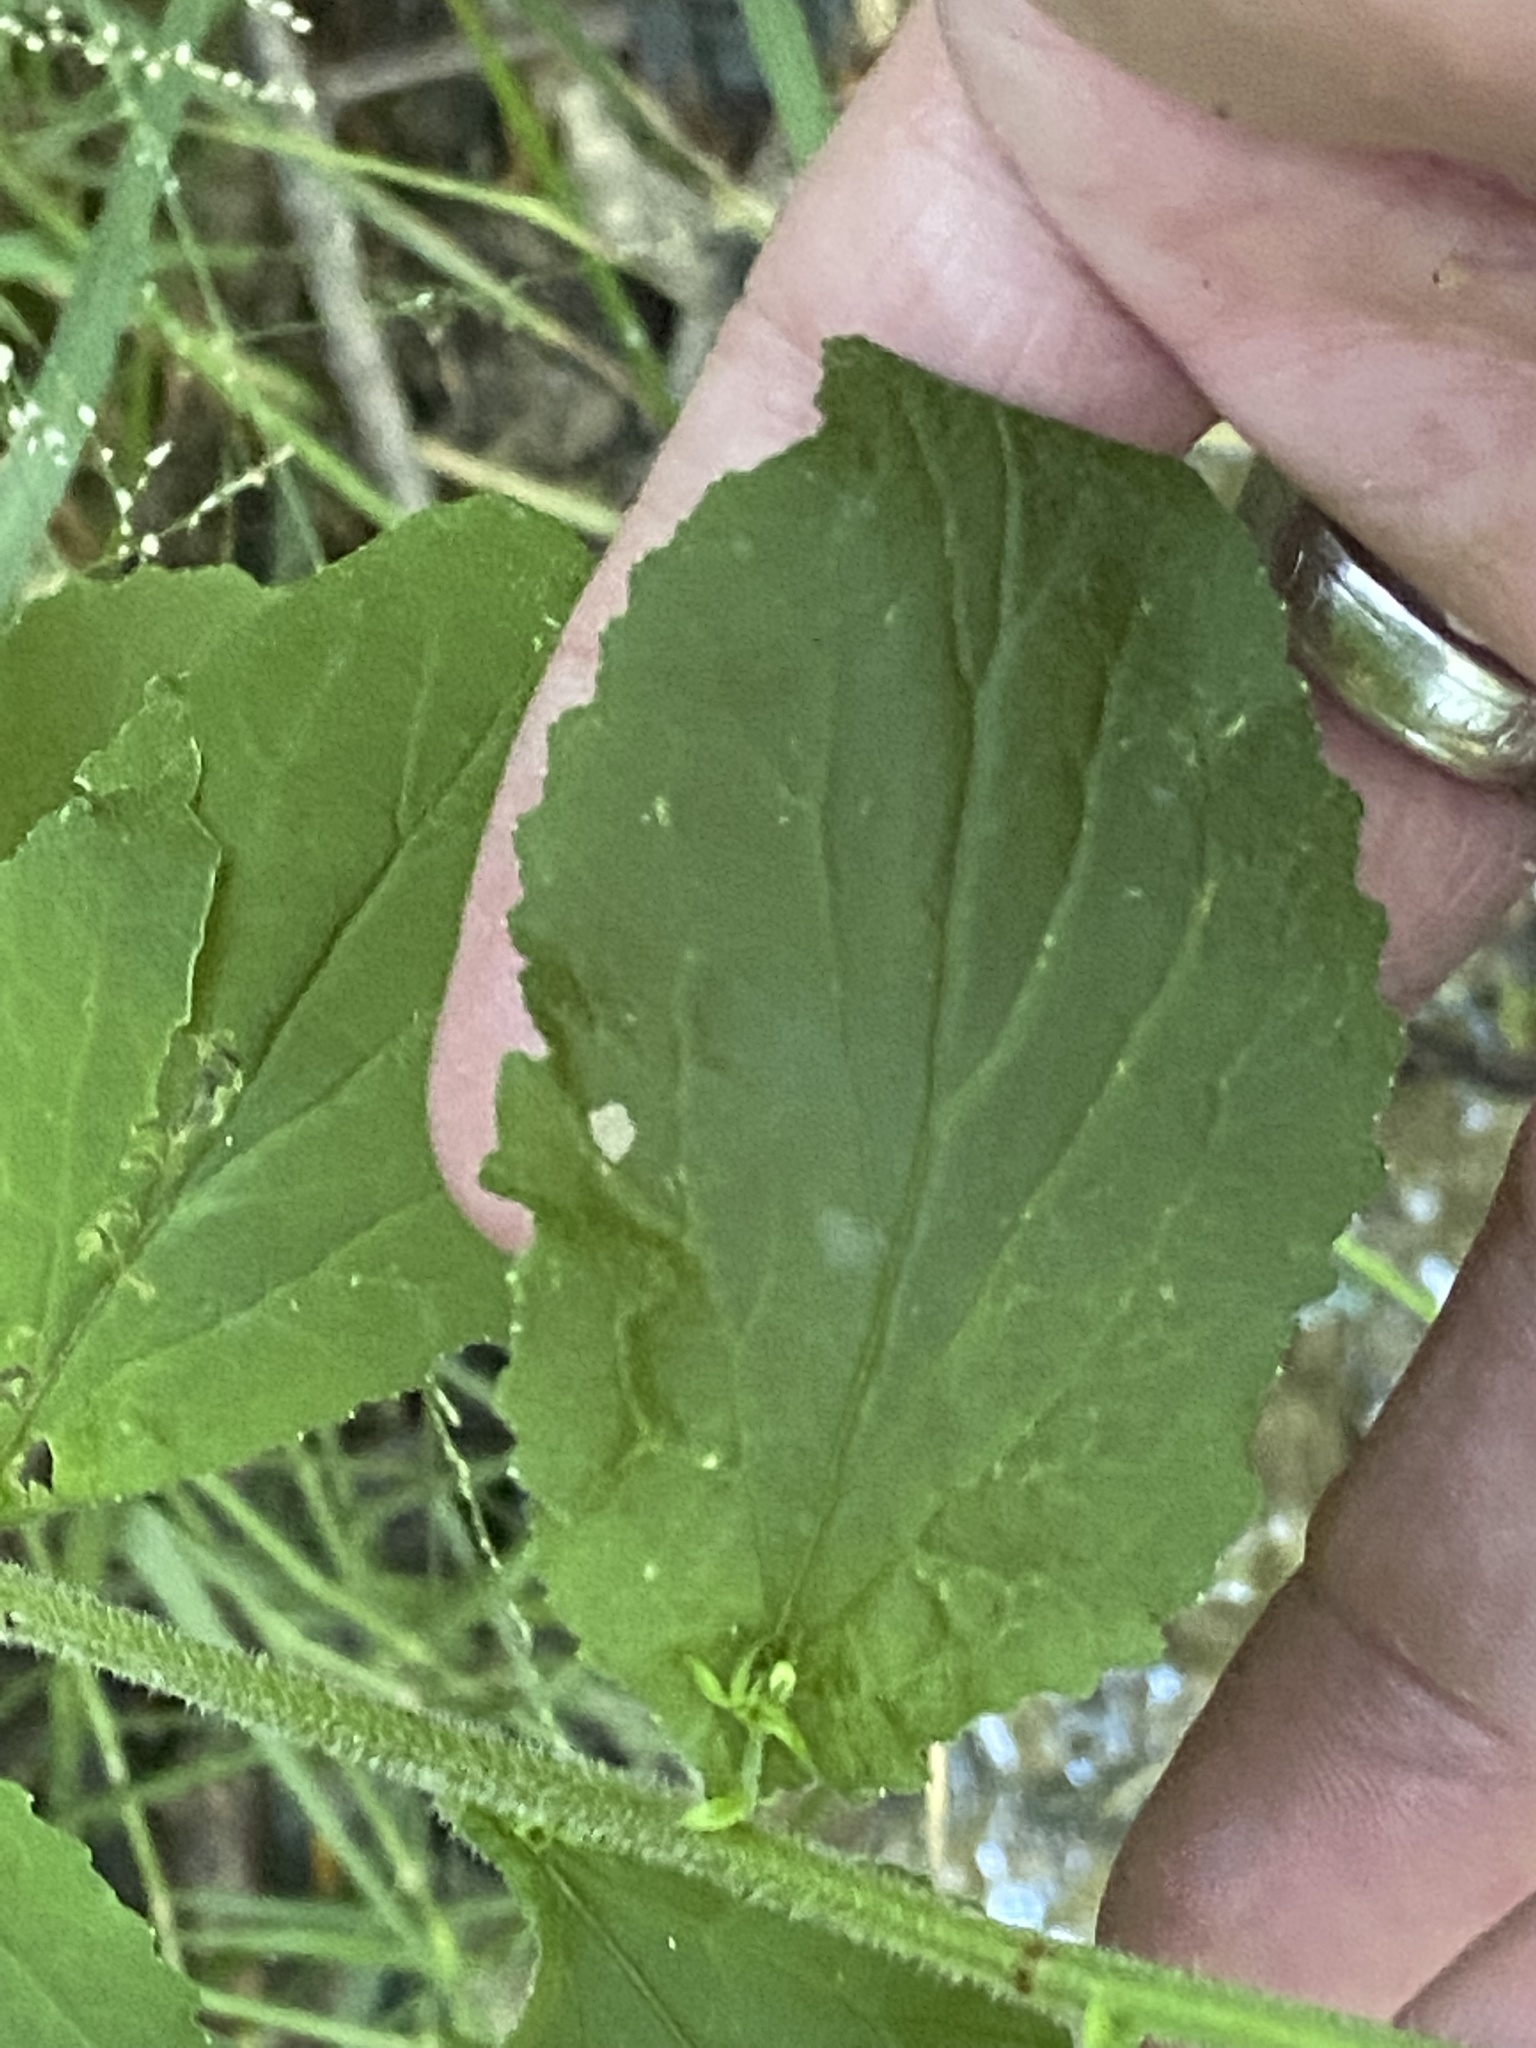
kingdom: Plantae
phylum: Tracheophyta
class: Magnoliopsida
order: Asterales
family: Campanulaceae
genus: Lobelia
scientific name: Lobelia inflata
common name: Indian tobacco
